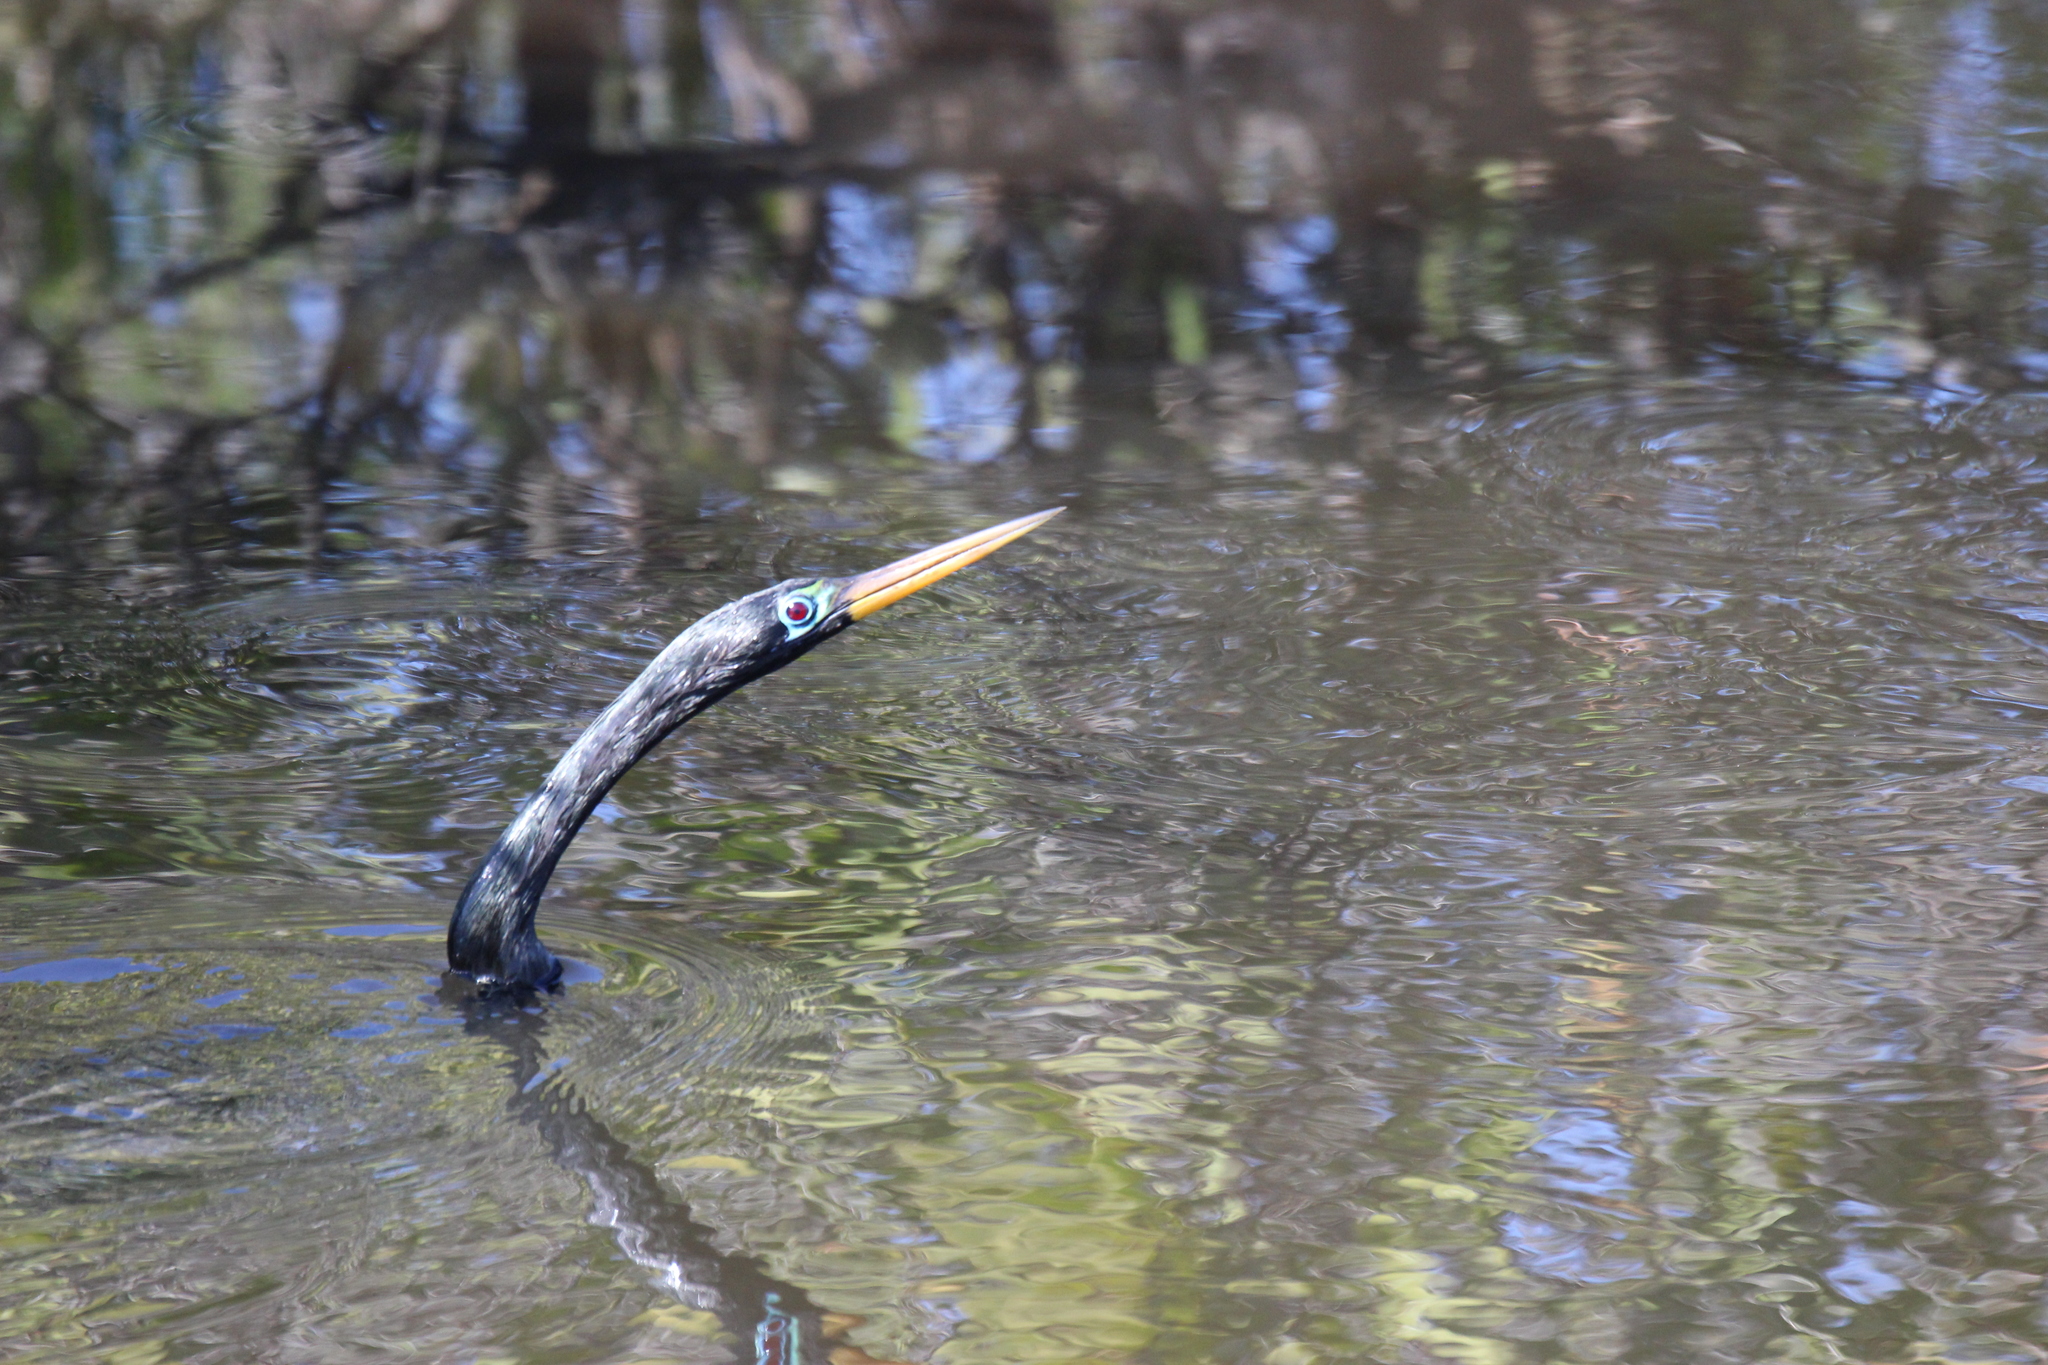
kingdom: Animalia
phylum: Chordata
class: Aves
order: Suliformes
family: Anhingidae
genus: Anhinga
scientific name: Anhinga anhinga
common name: Anhinga
